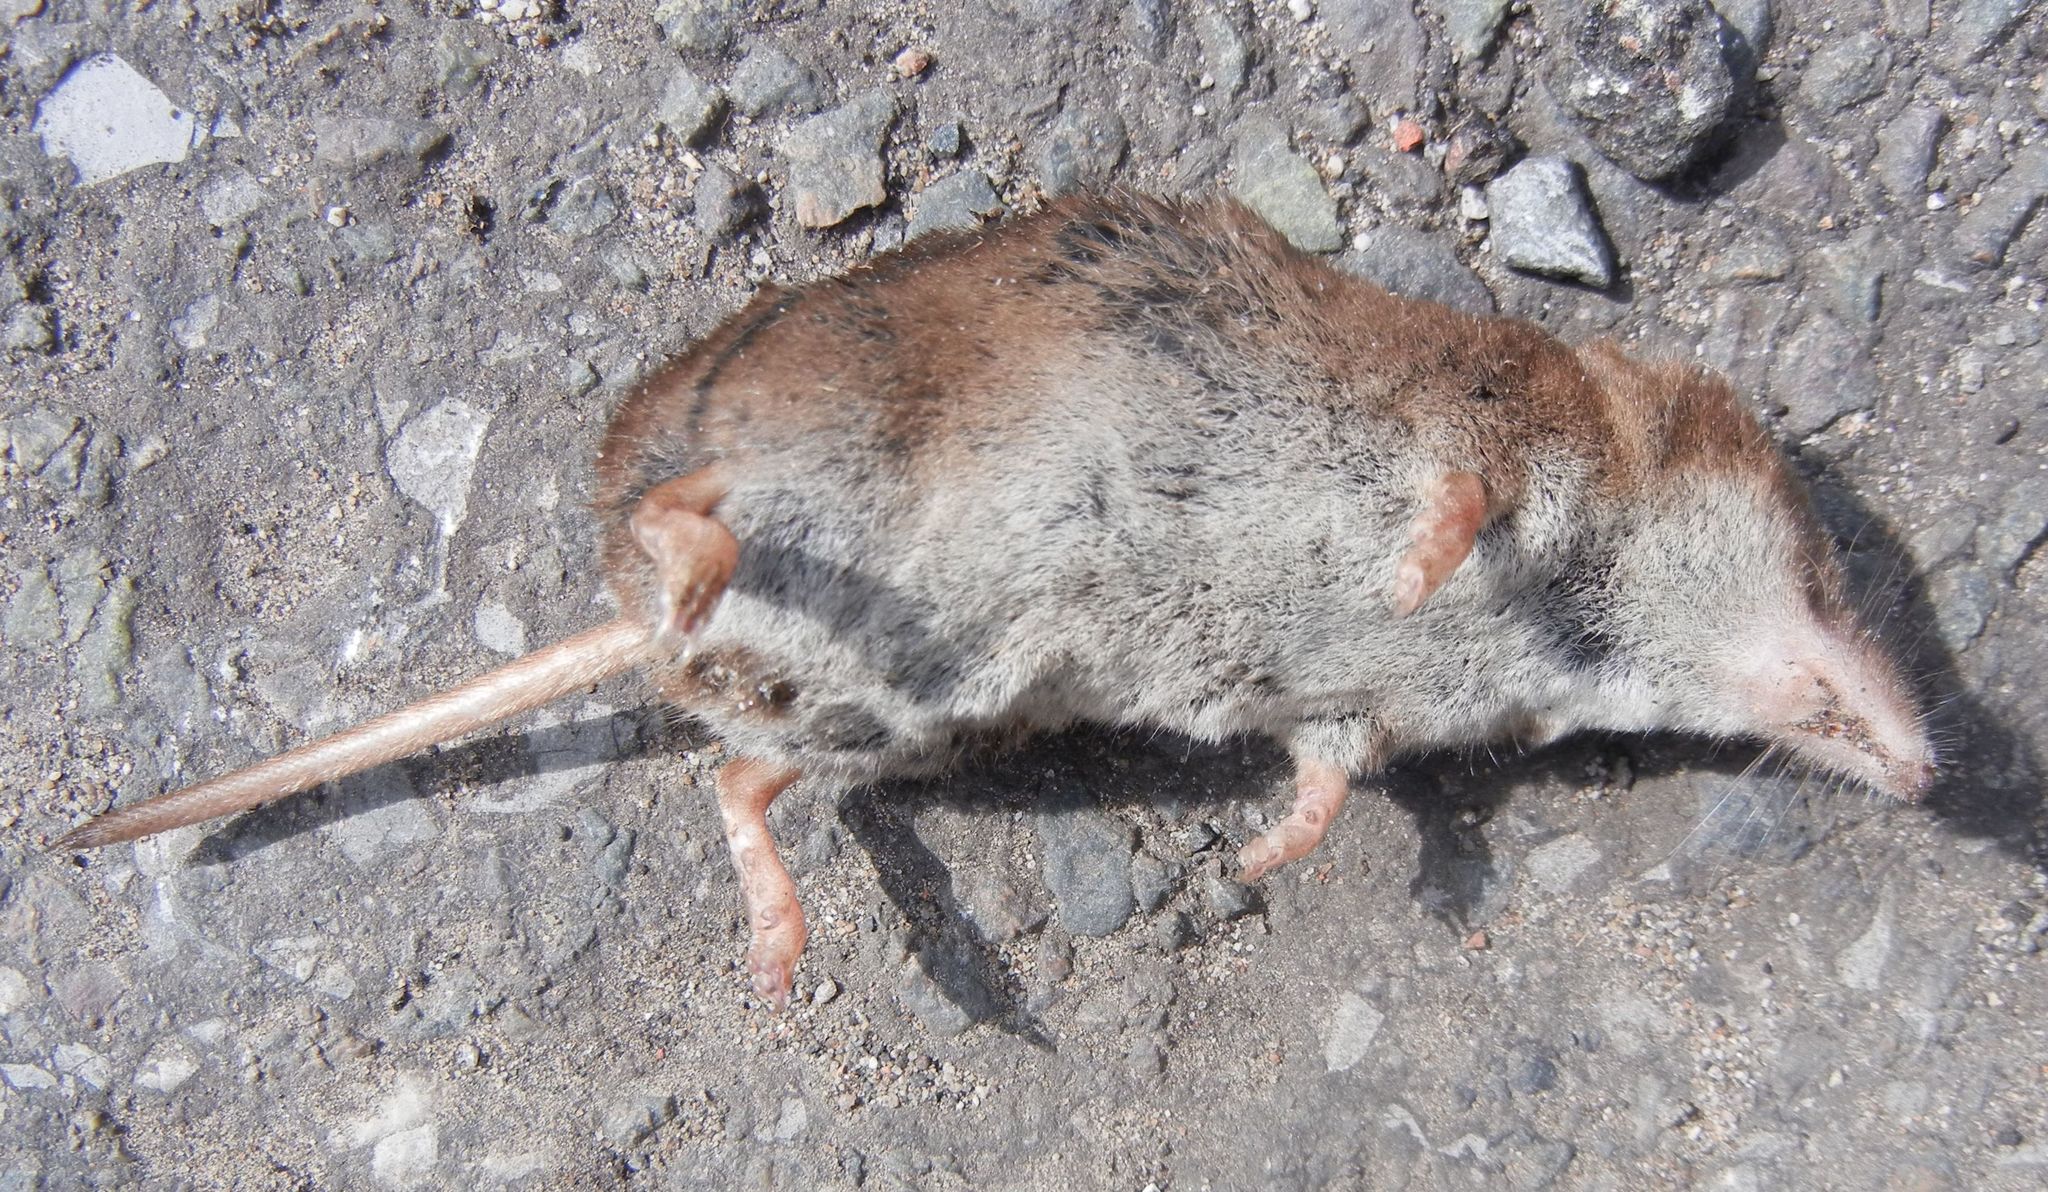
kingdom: Animalia
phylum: Chordata
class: Mammalia
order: Soricomorpha
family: Soricidae
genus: Sorex
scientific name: Sorex araneus
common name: Common shrew
